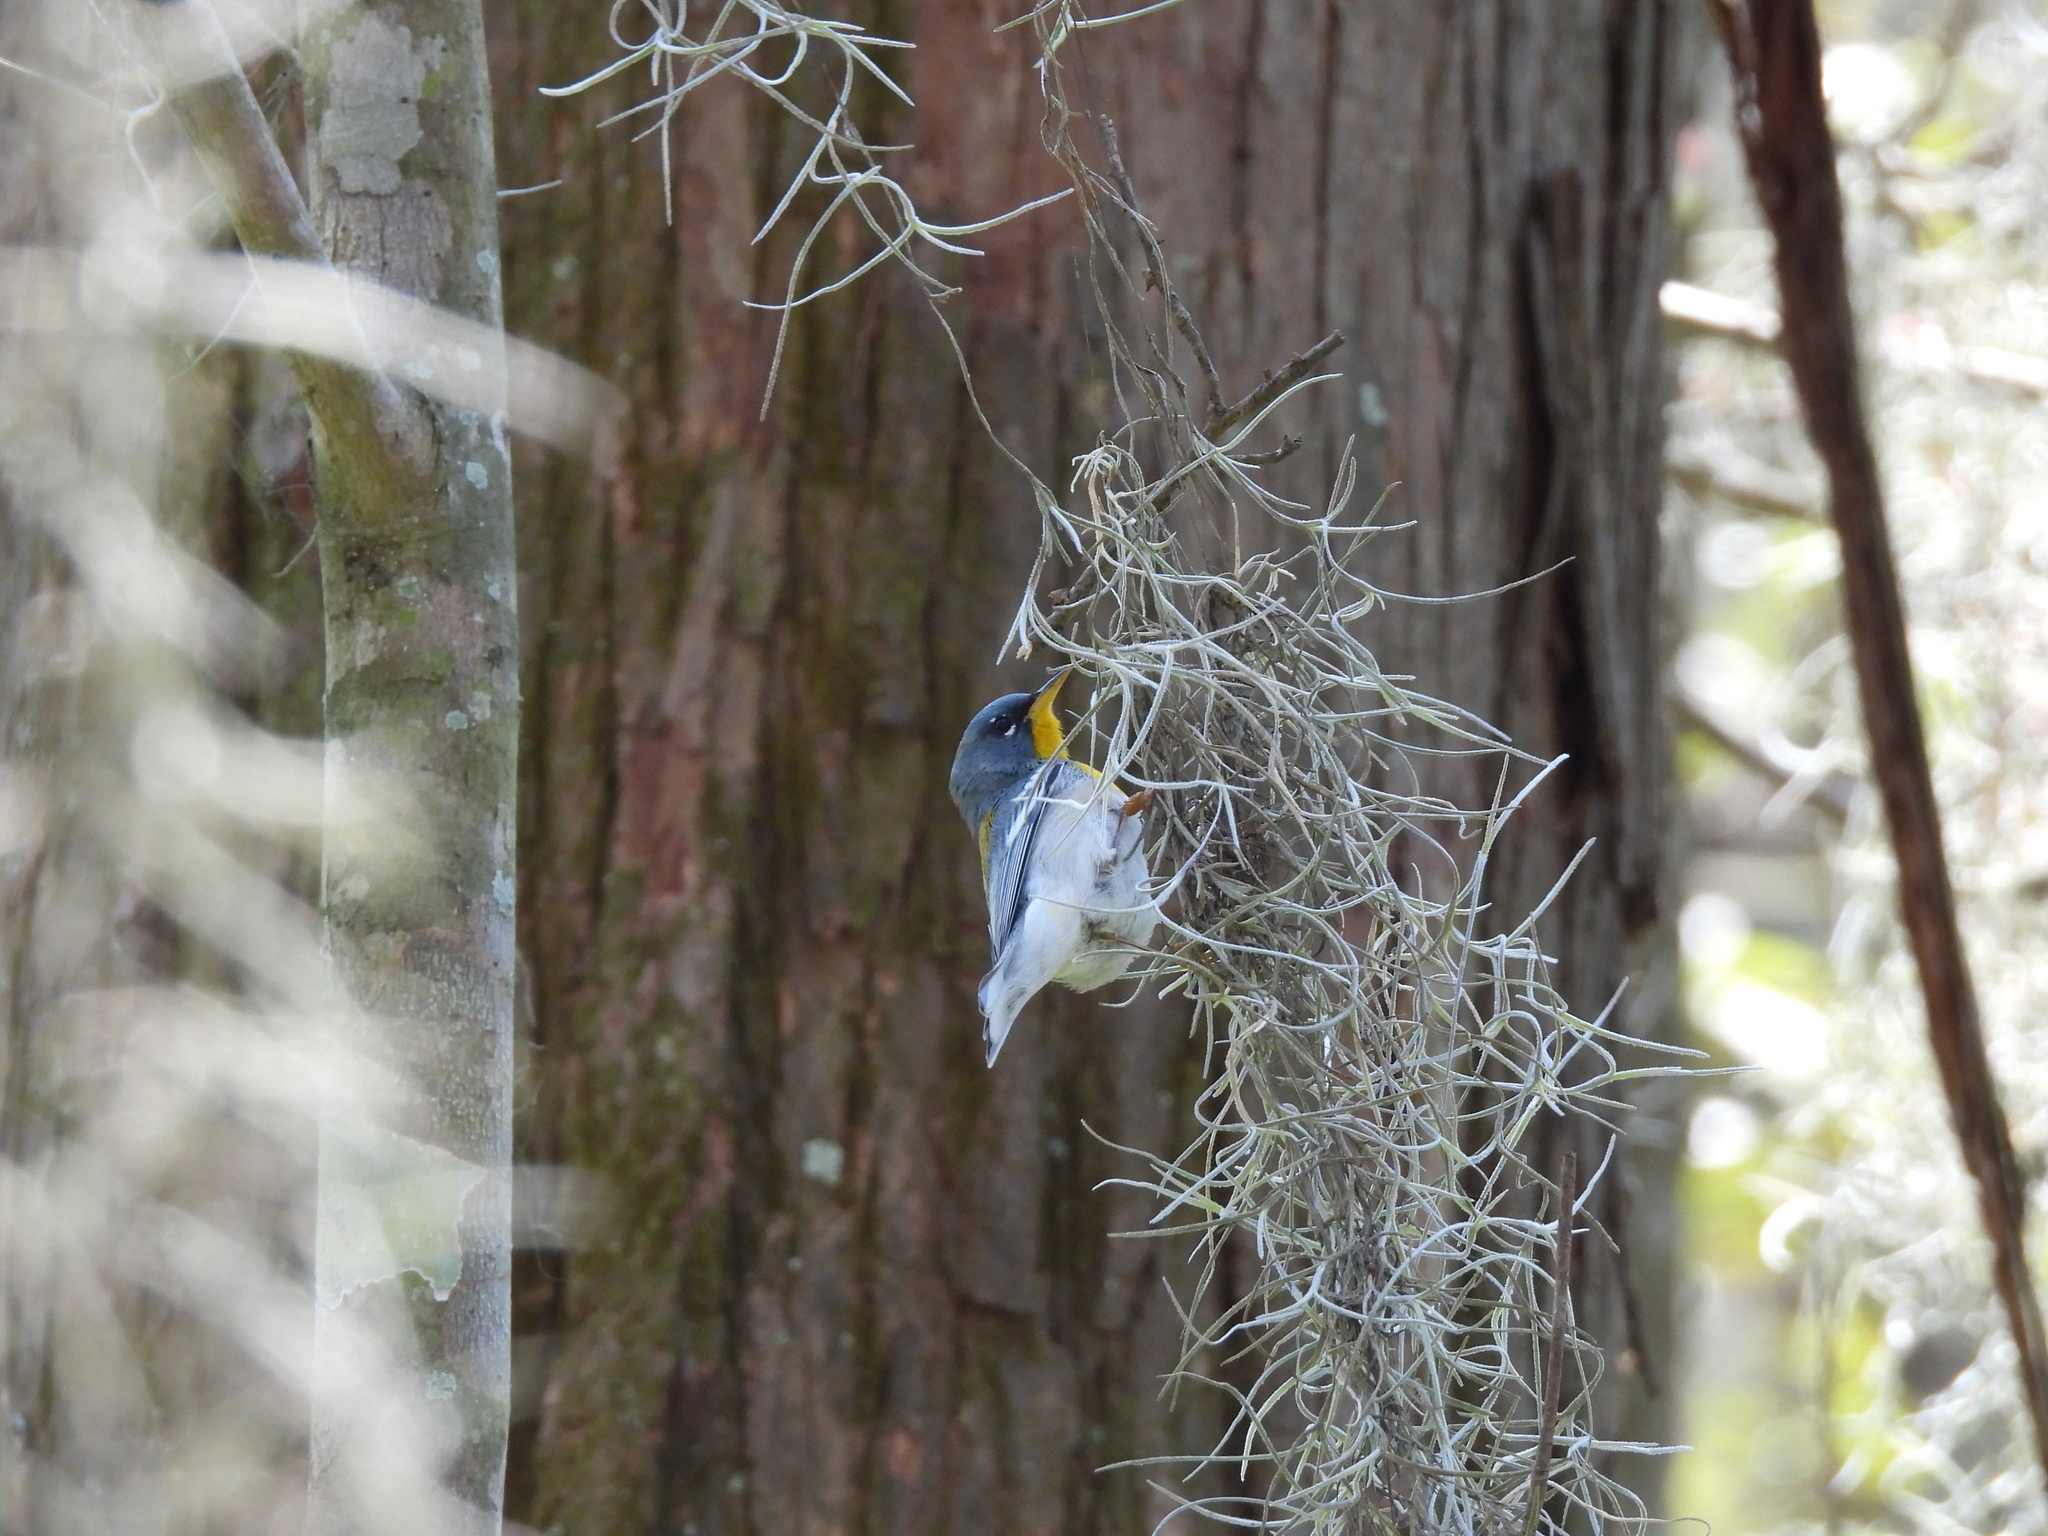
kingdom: Animalia
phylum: Chordata
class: Aves
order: Passeriformes
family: Parulidae
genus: Setophaga
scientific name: Setophaga americana
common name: Northern parula
